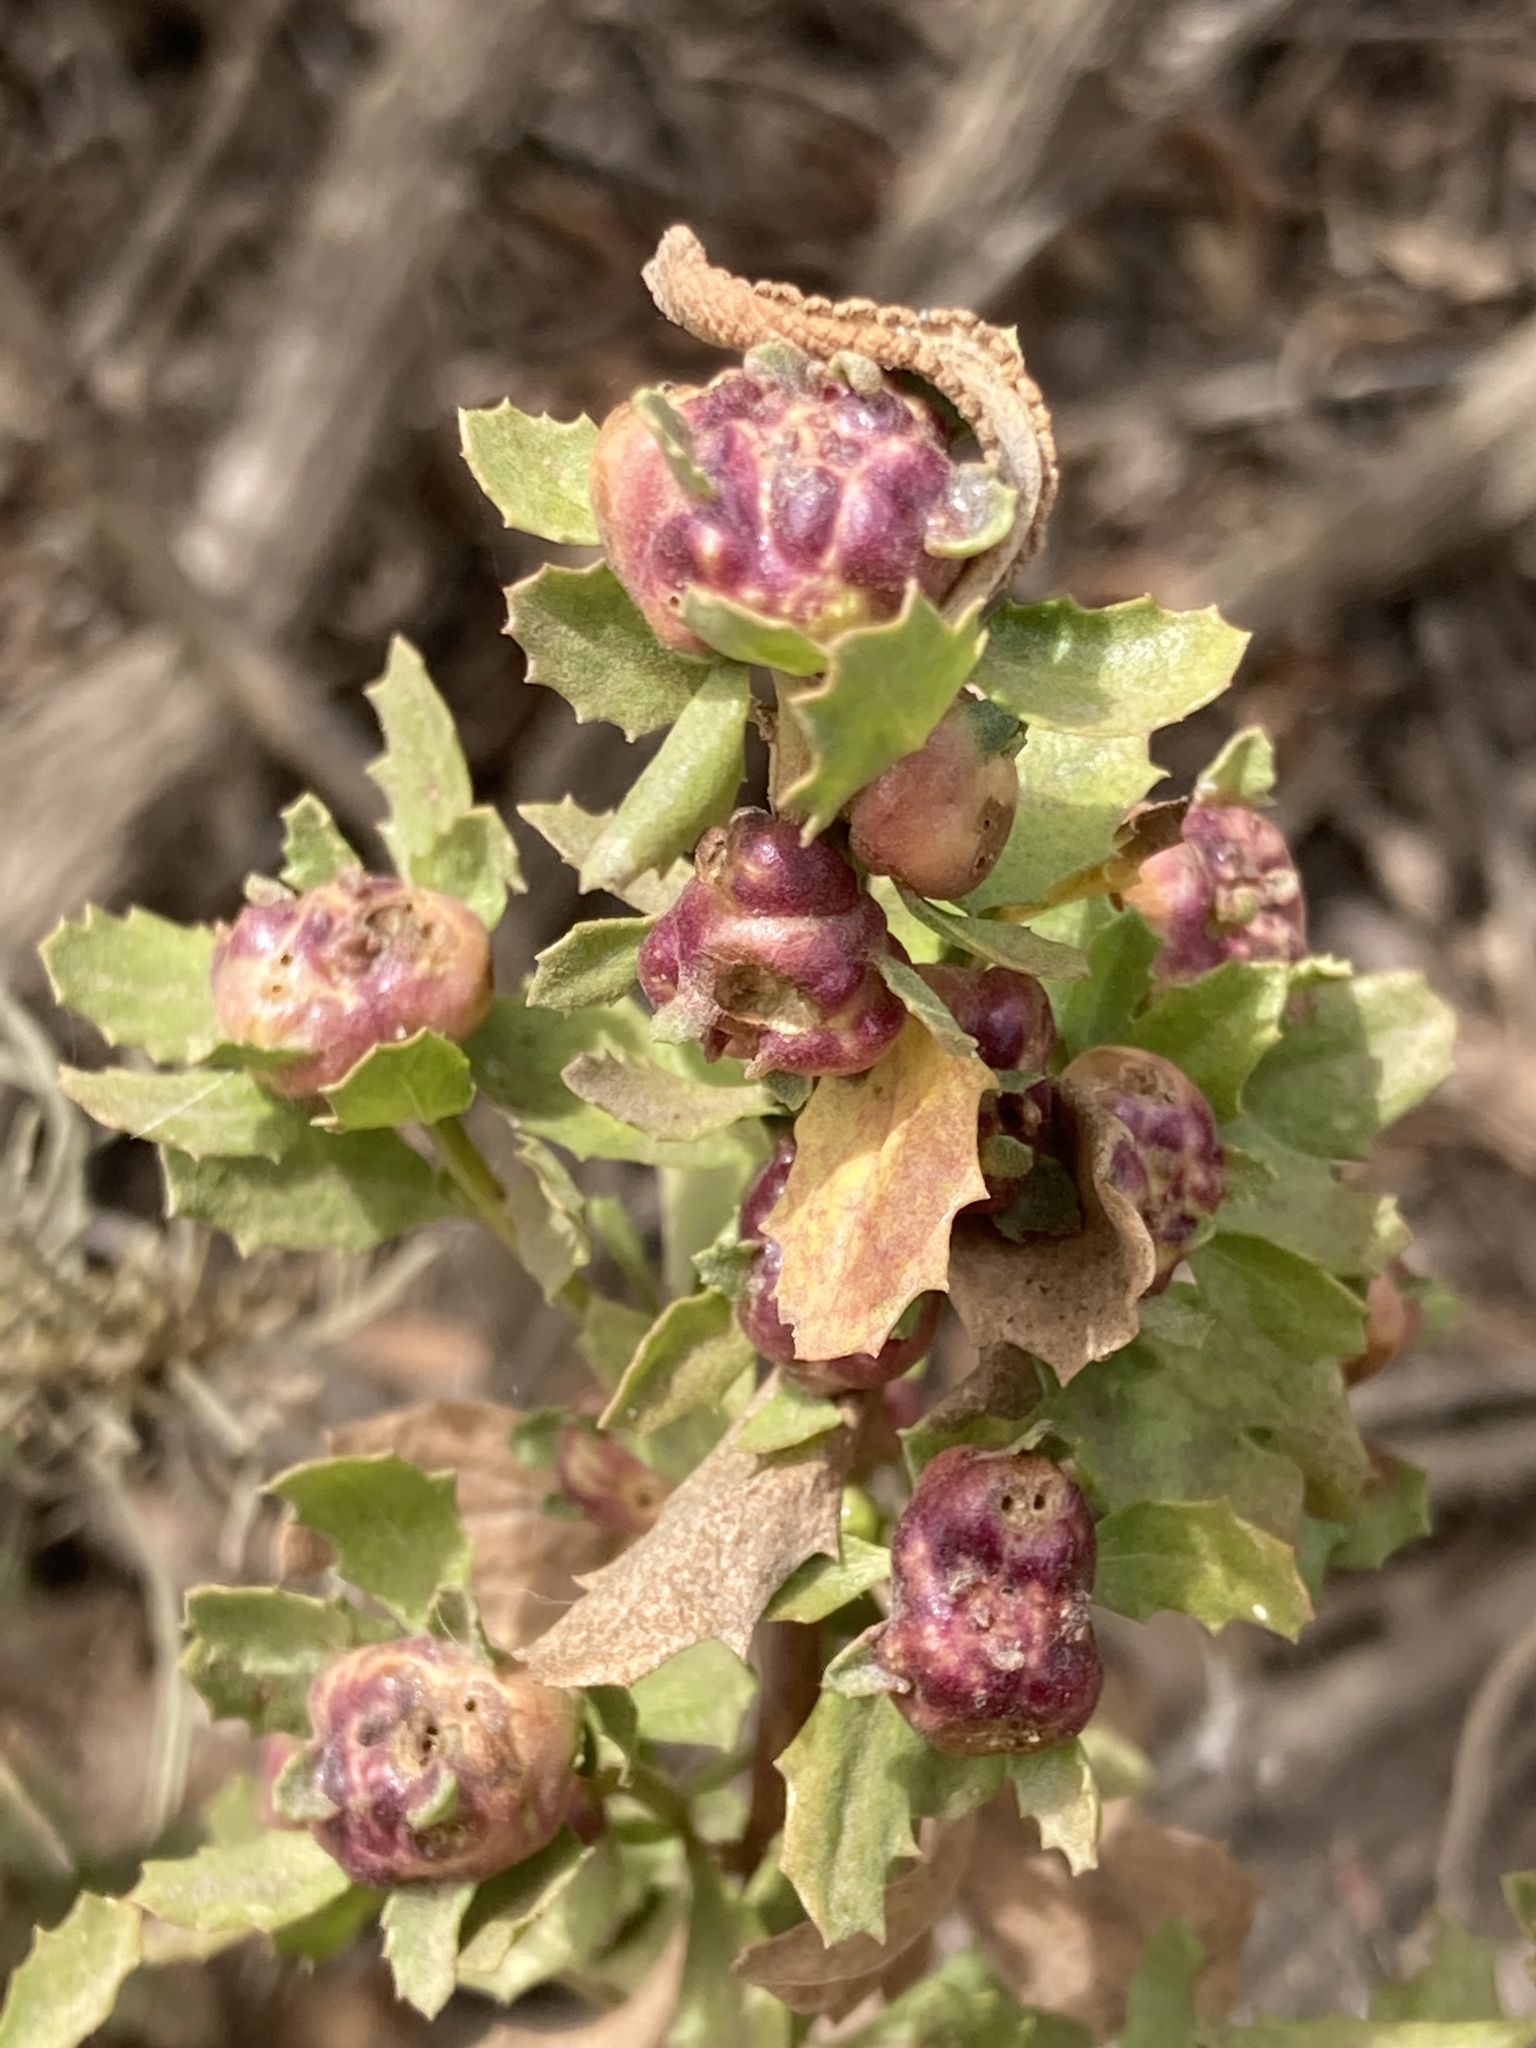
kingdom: Animalia
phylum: Arthropoda
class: Insecta
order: Diptera
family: Cecidomyiidae
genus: Rhopalomyia
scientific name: Rhopalomyia californica
